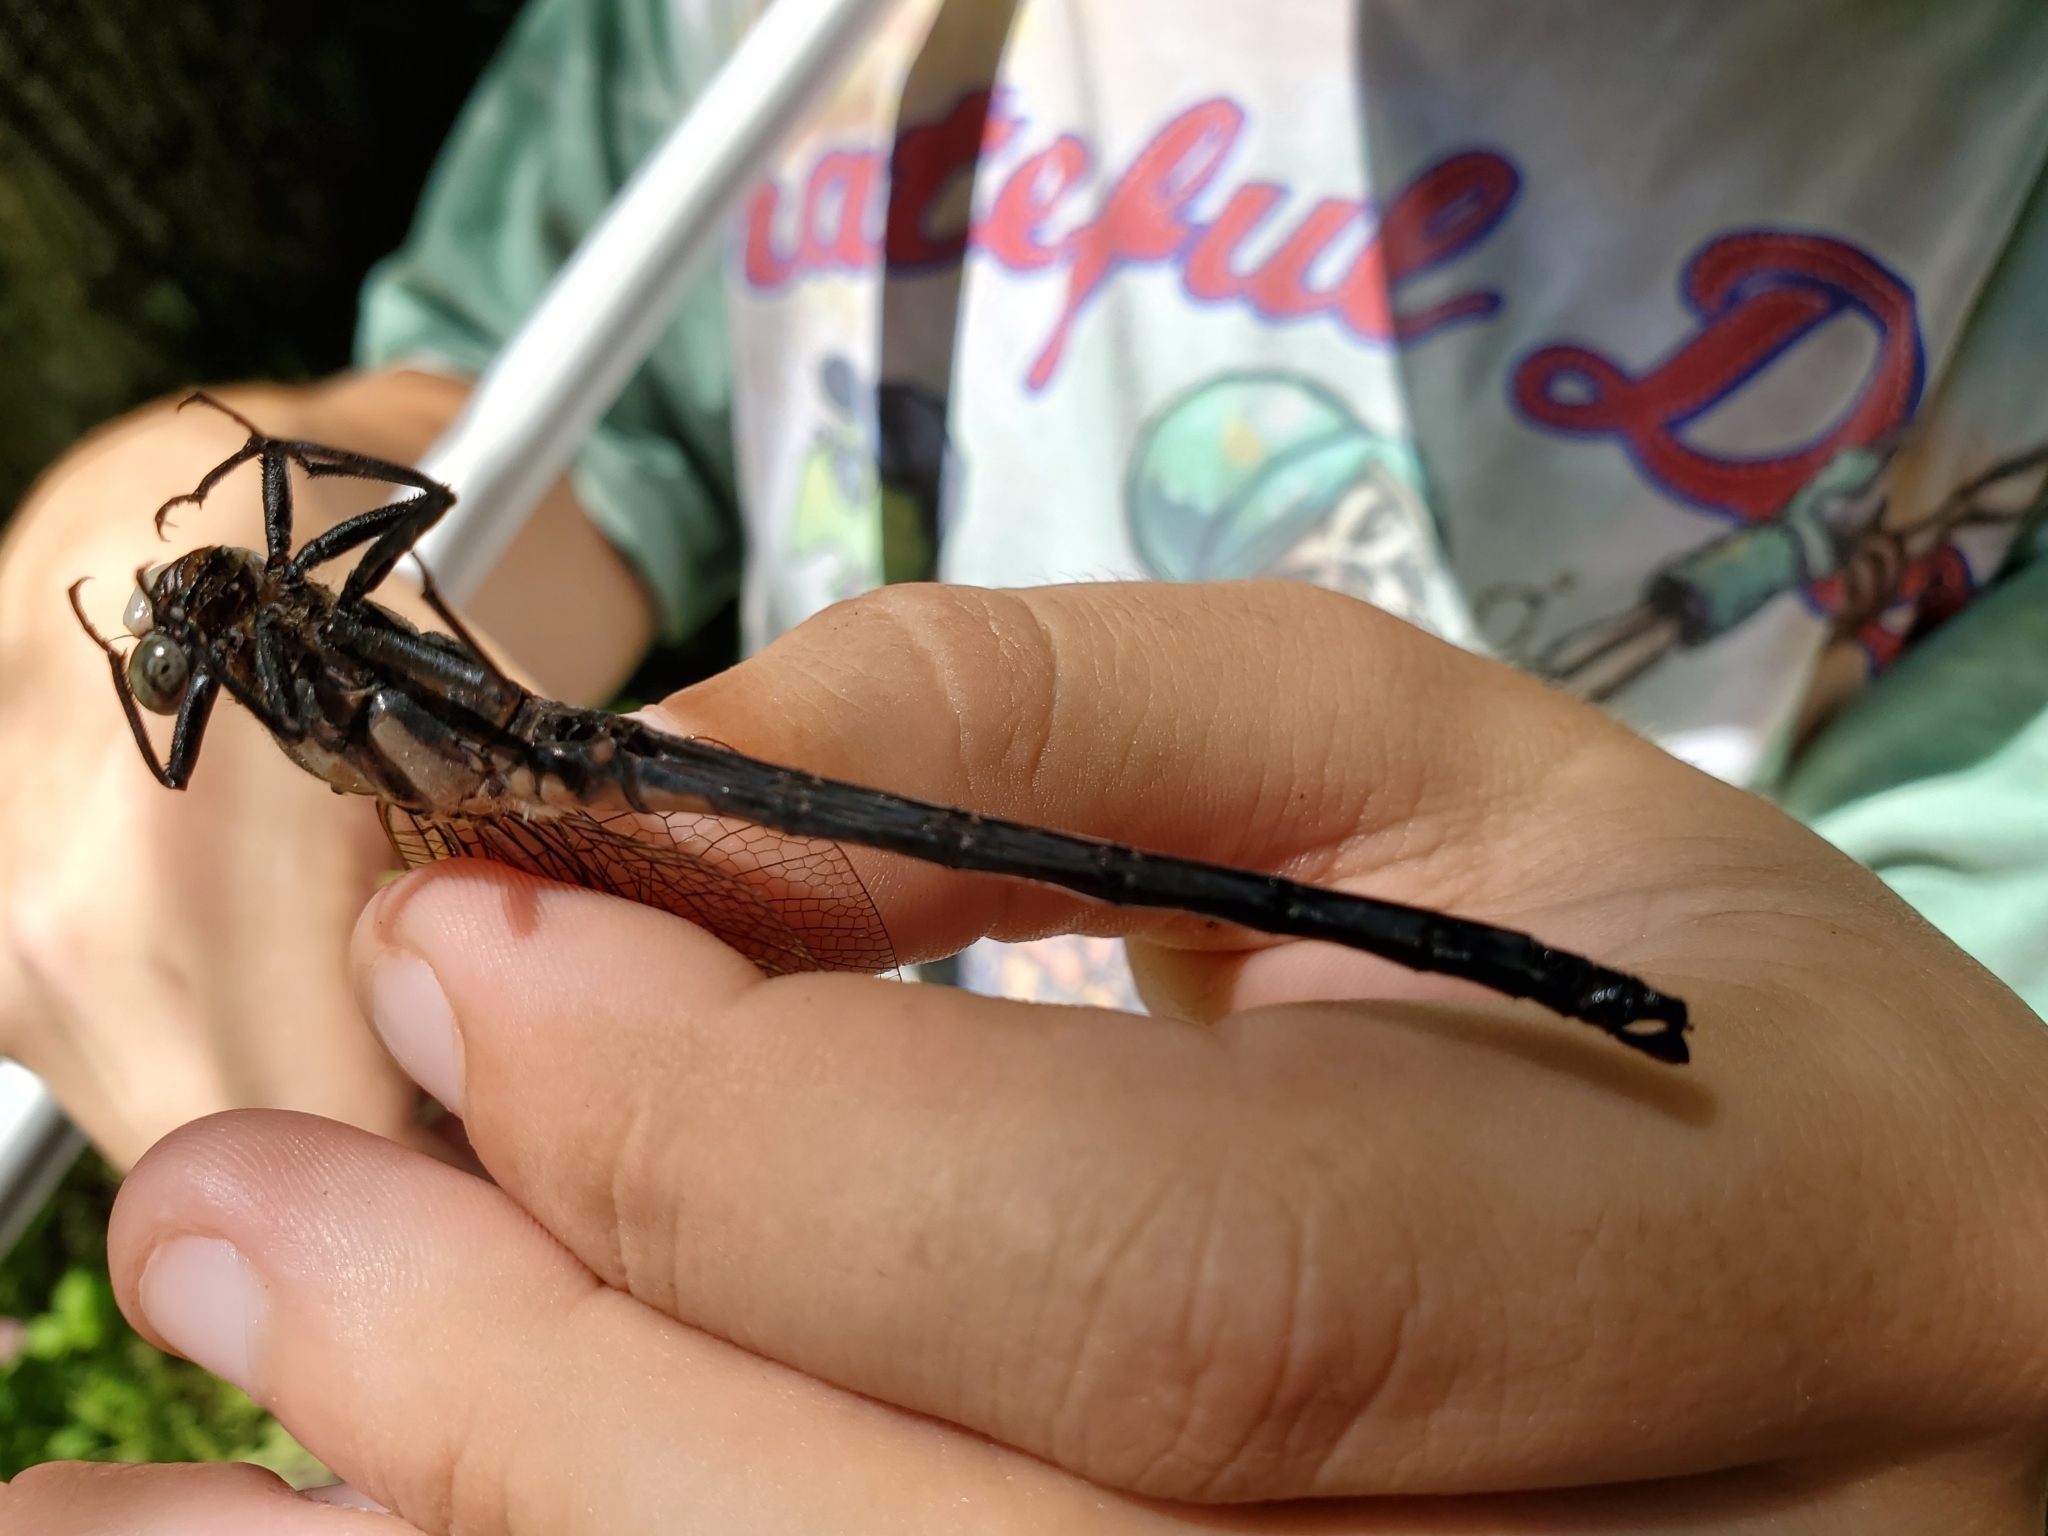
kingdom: Animalia
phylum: Arthropoda
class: Insecta
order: Odonata
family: Petaluridae
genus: Tachopteryx
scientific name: Tachopteryx thoreyi
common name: Gray petaltail
